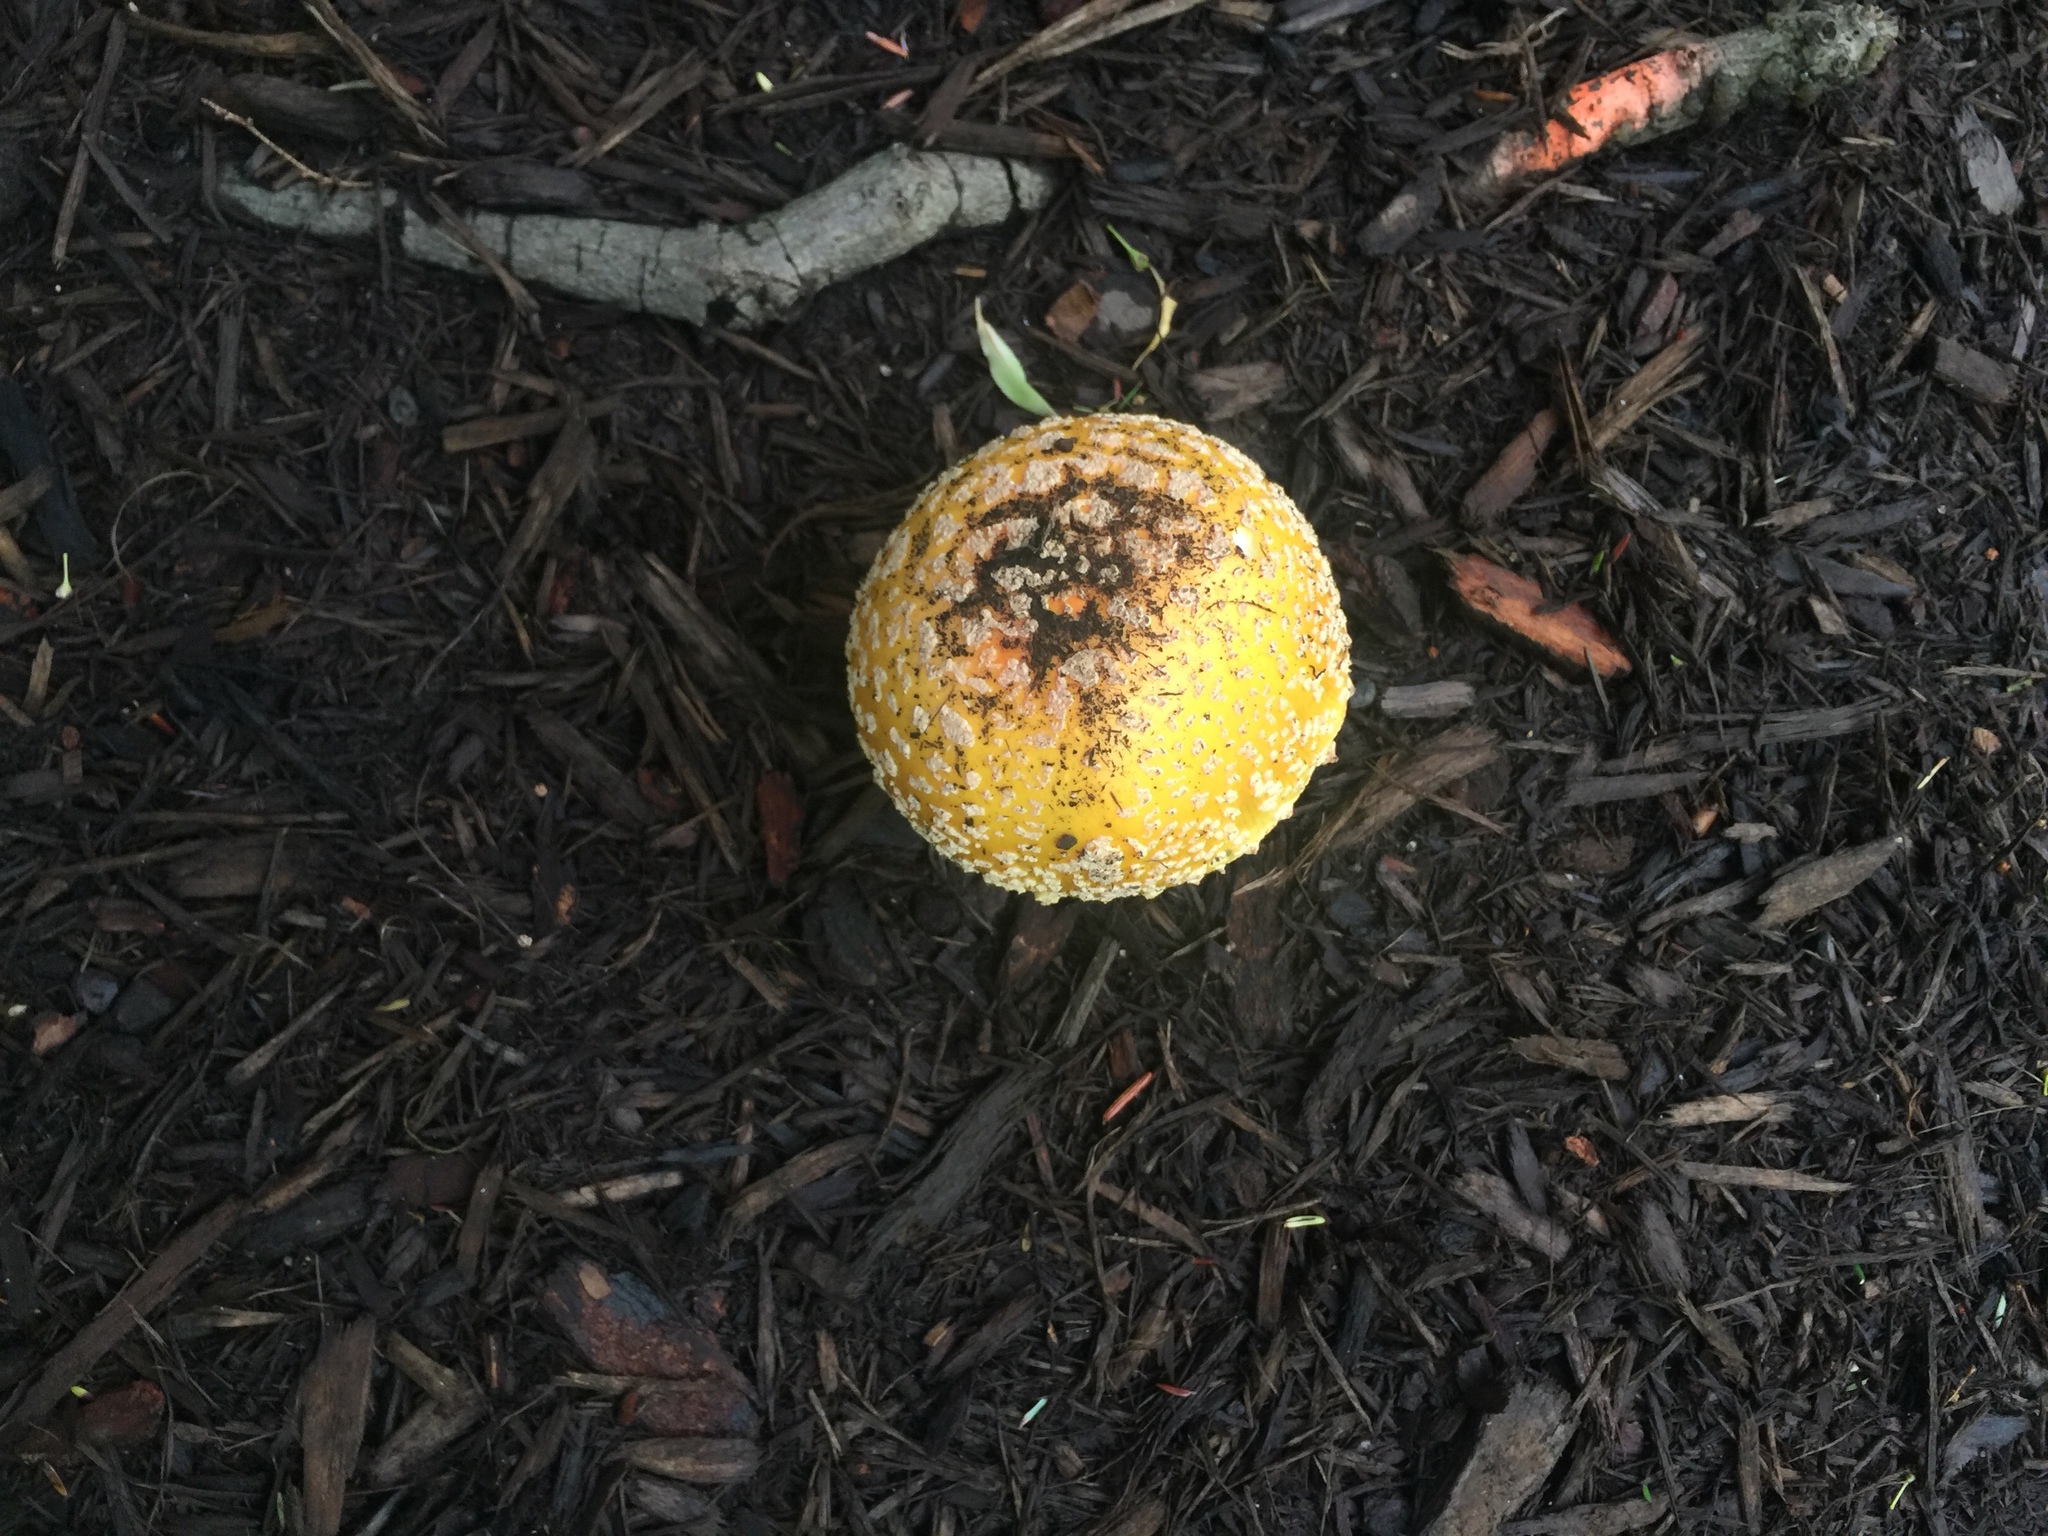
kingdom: Fungi
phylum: Basidiomycota
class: Agaricomycetes
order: Agaricales
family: Amanitaceae
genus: Amanita
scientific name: Amanita muscaria
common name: Fly agaric
